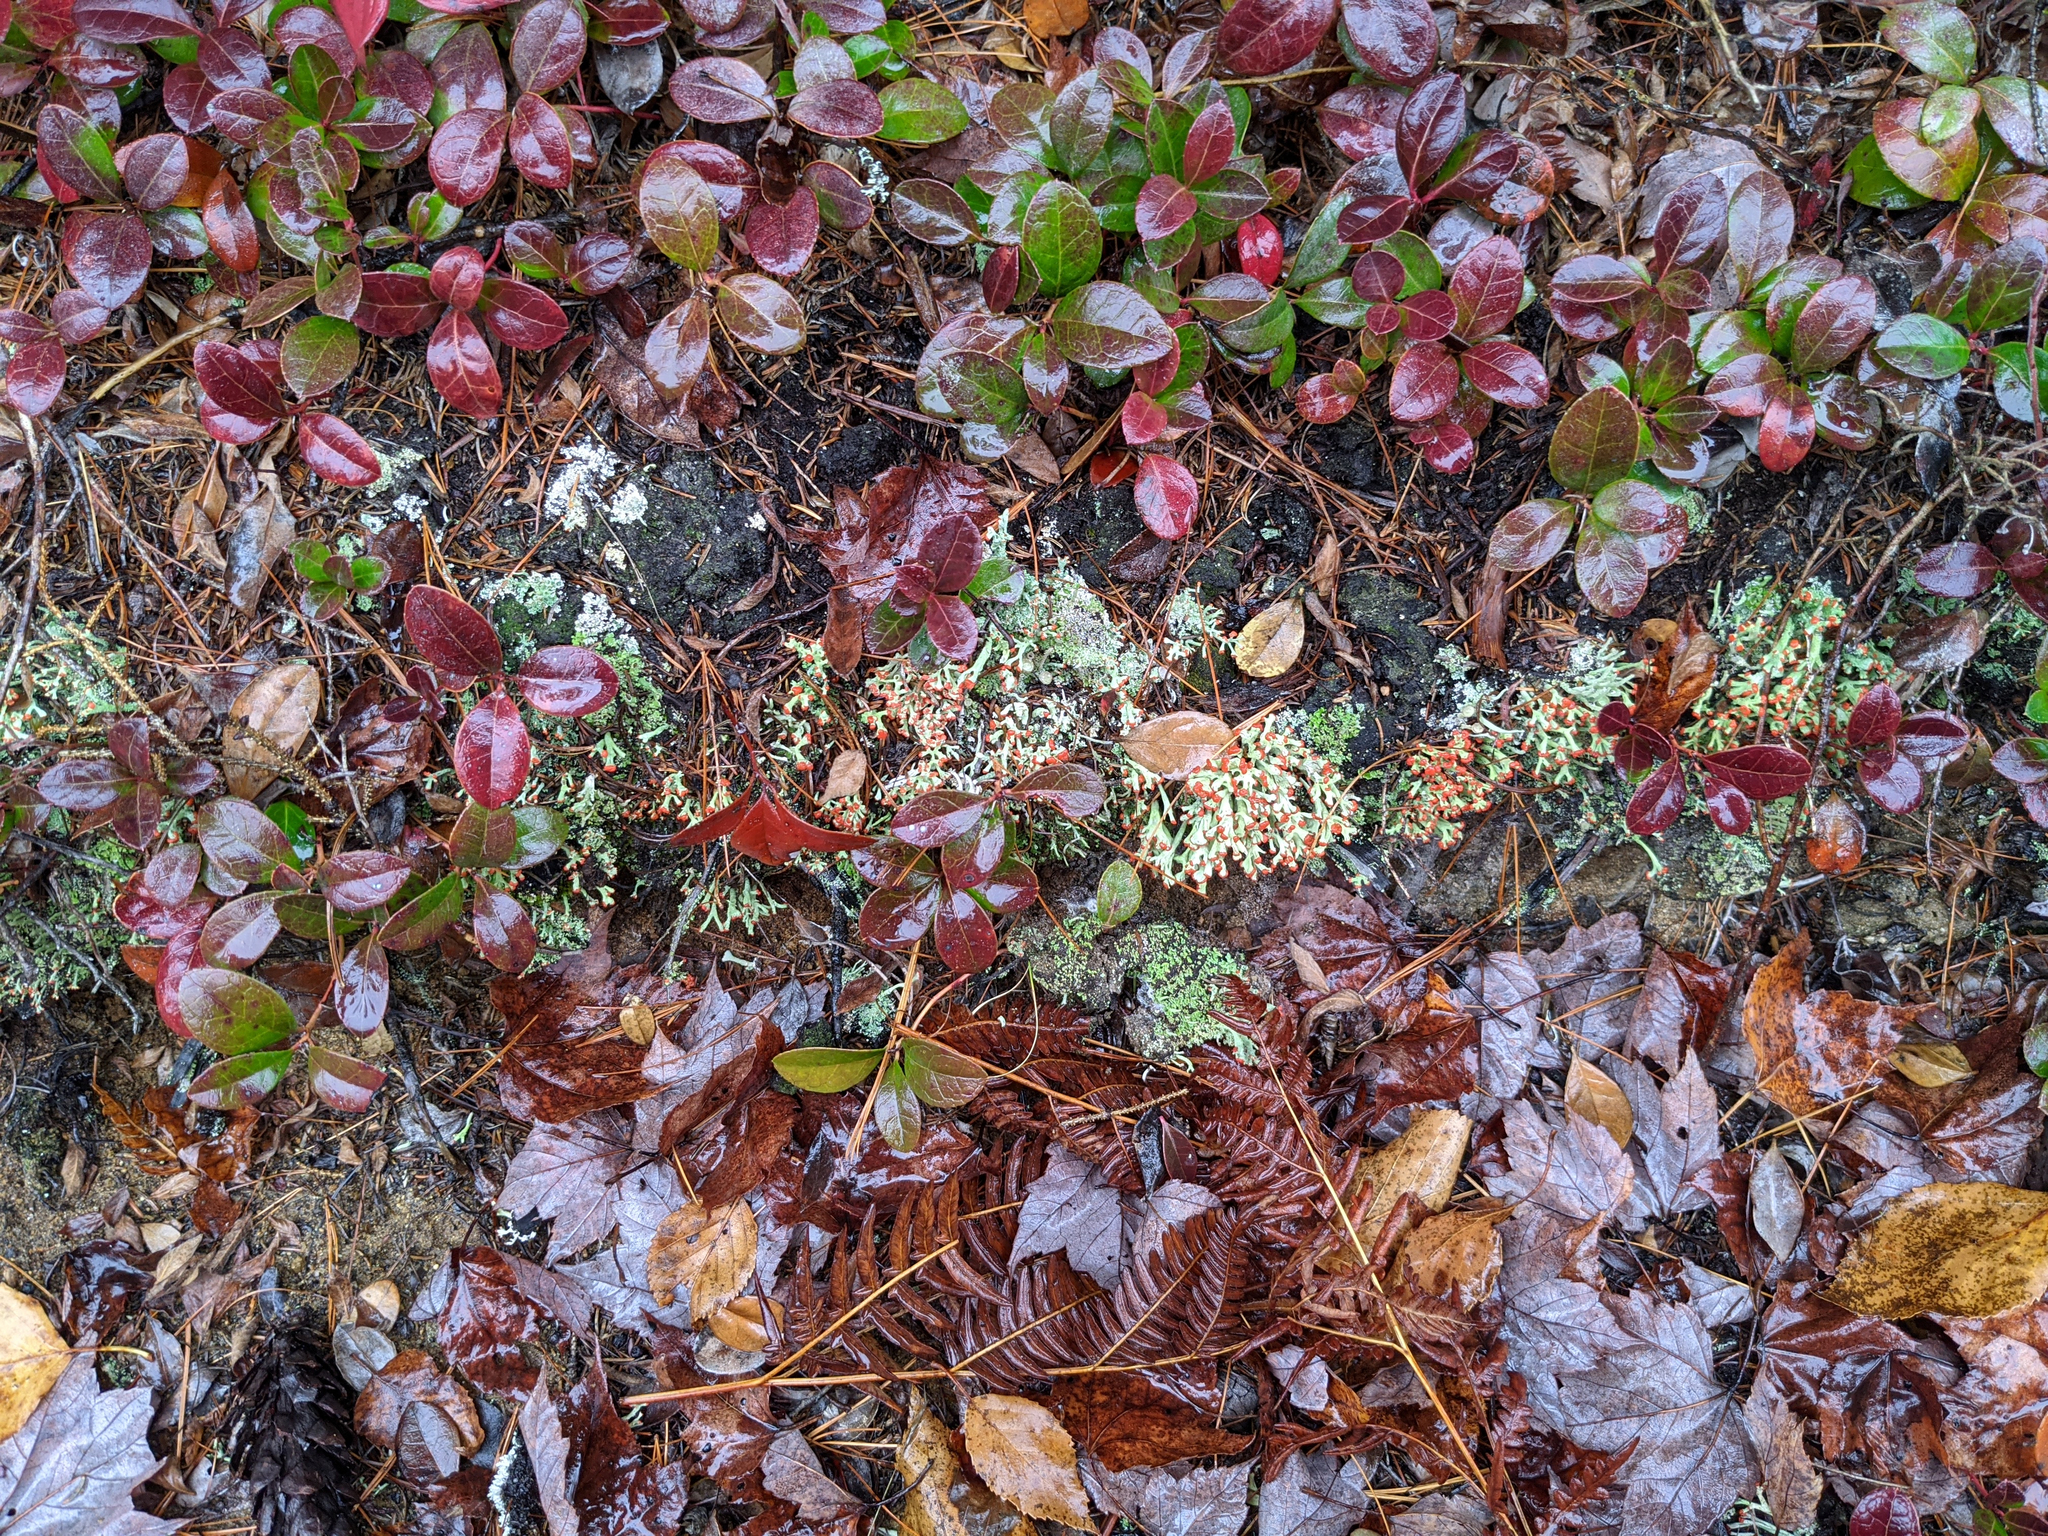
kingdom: Plantae
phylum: Tracheophyta
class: Magnoliopsida
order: Ericales
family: Ericaceae
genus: Gaultheria
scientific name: Gaultheria procumbens
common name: Checkerberry
